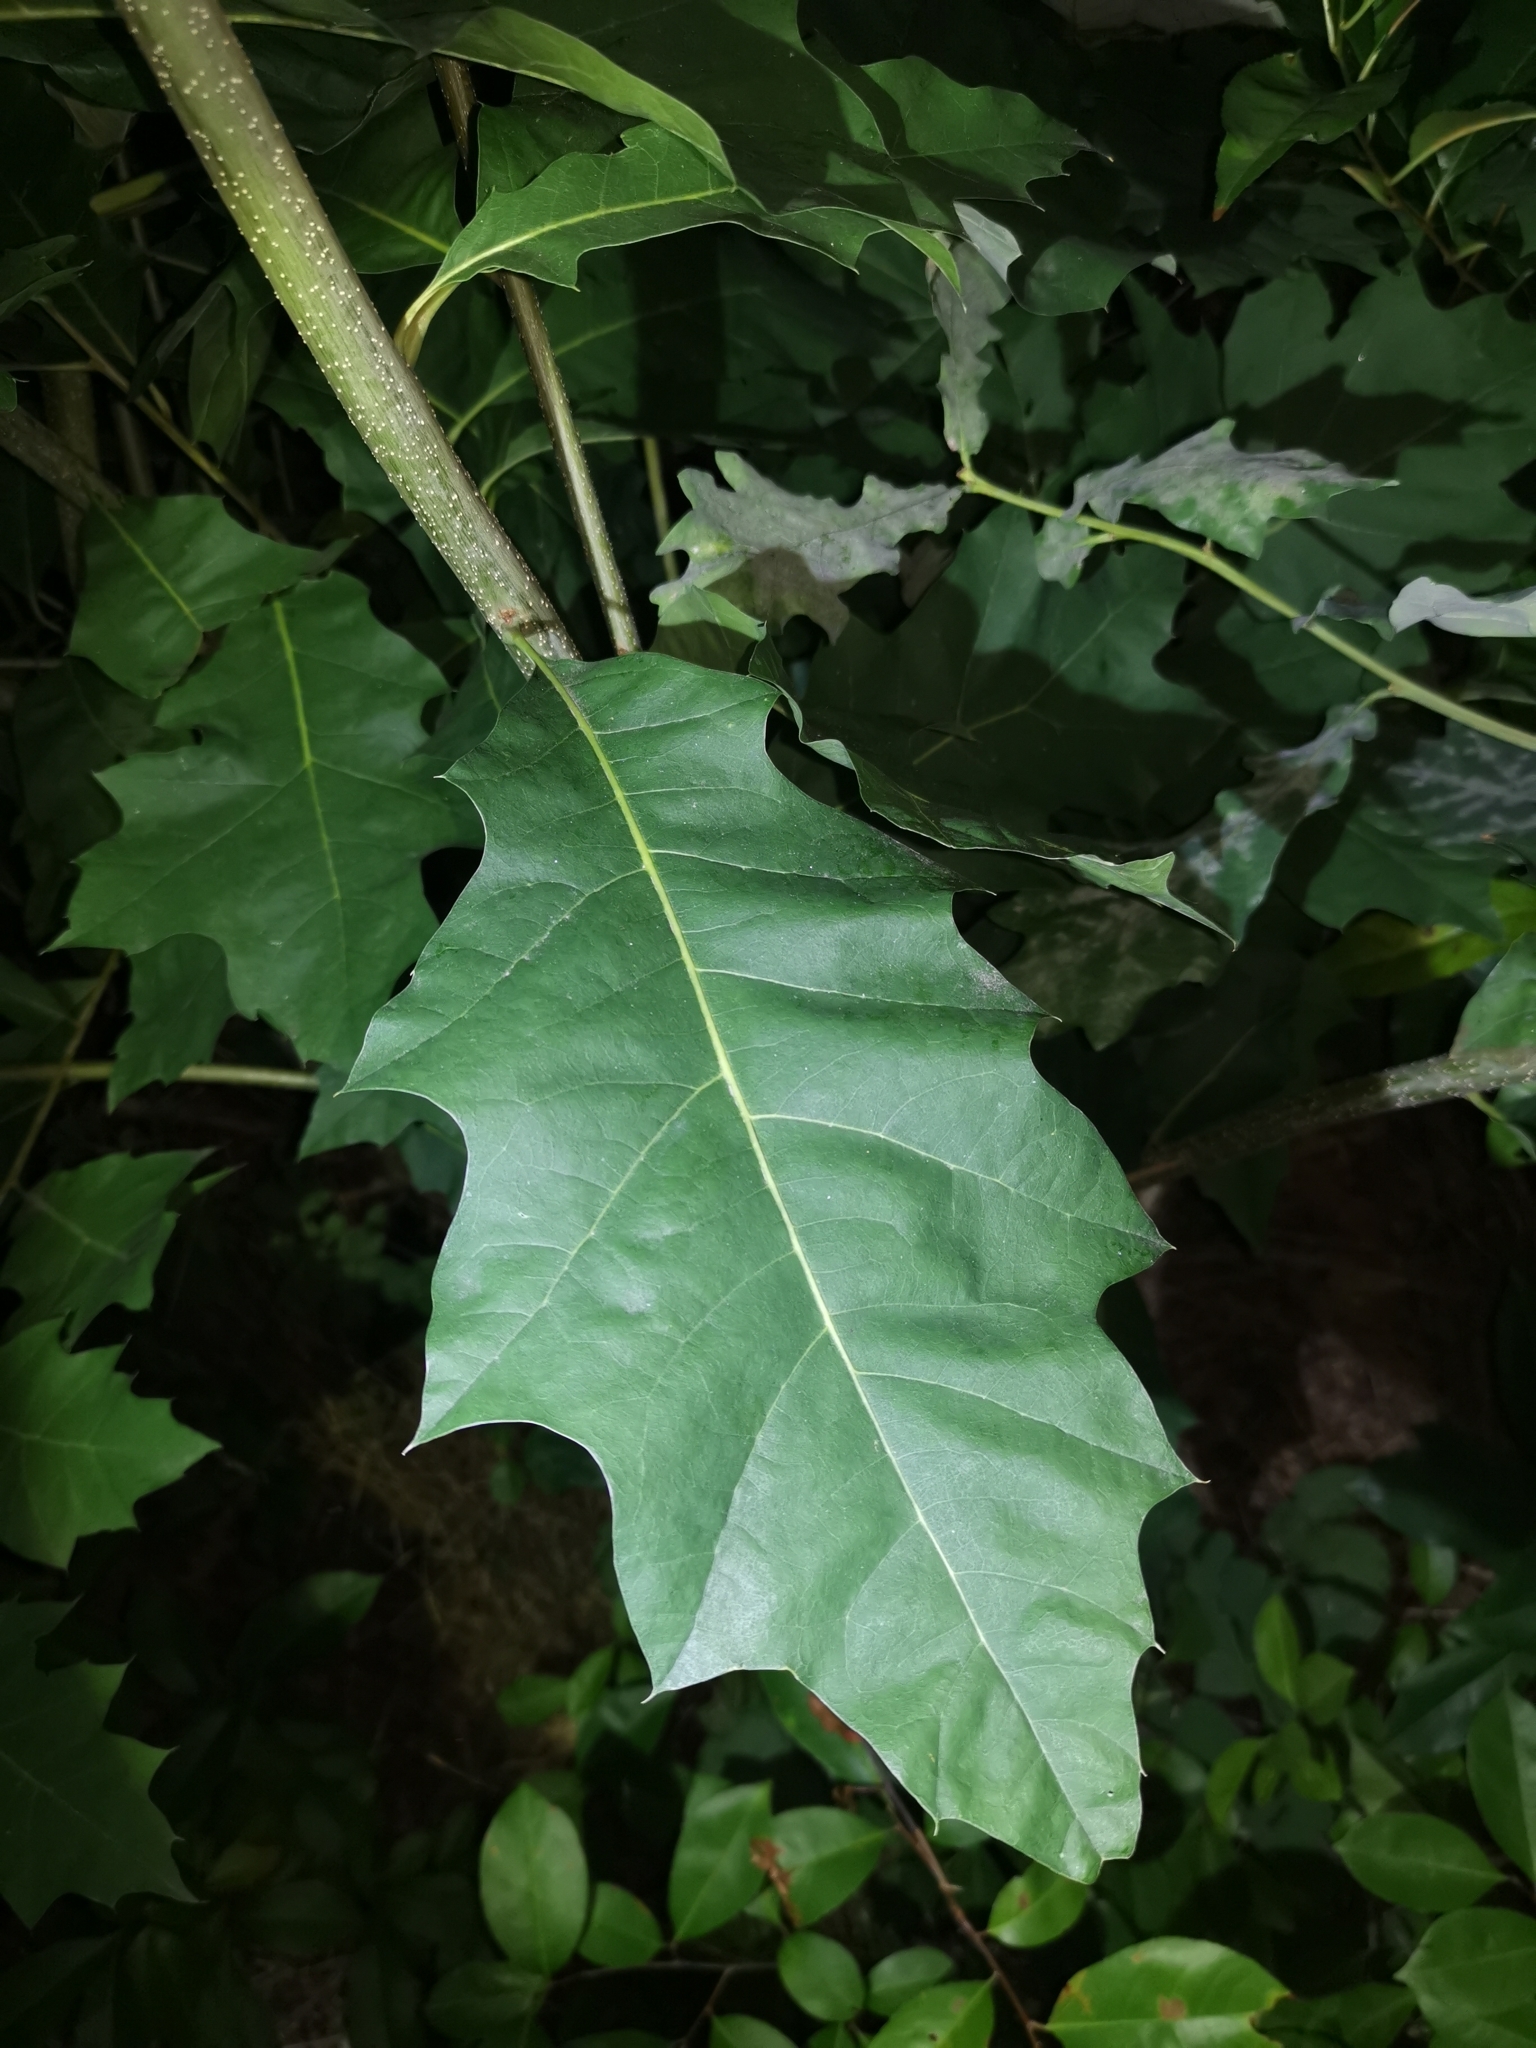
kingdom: Plantae
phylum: Tracheophyta
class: Magnoliopsida
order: Fagales
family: Fagaceae
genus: Quercus
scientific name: Quercus rubra
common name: Red oak
